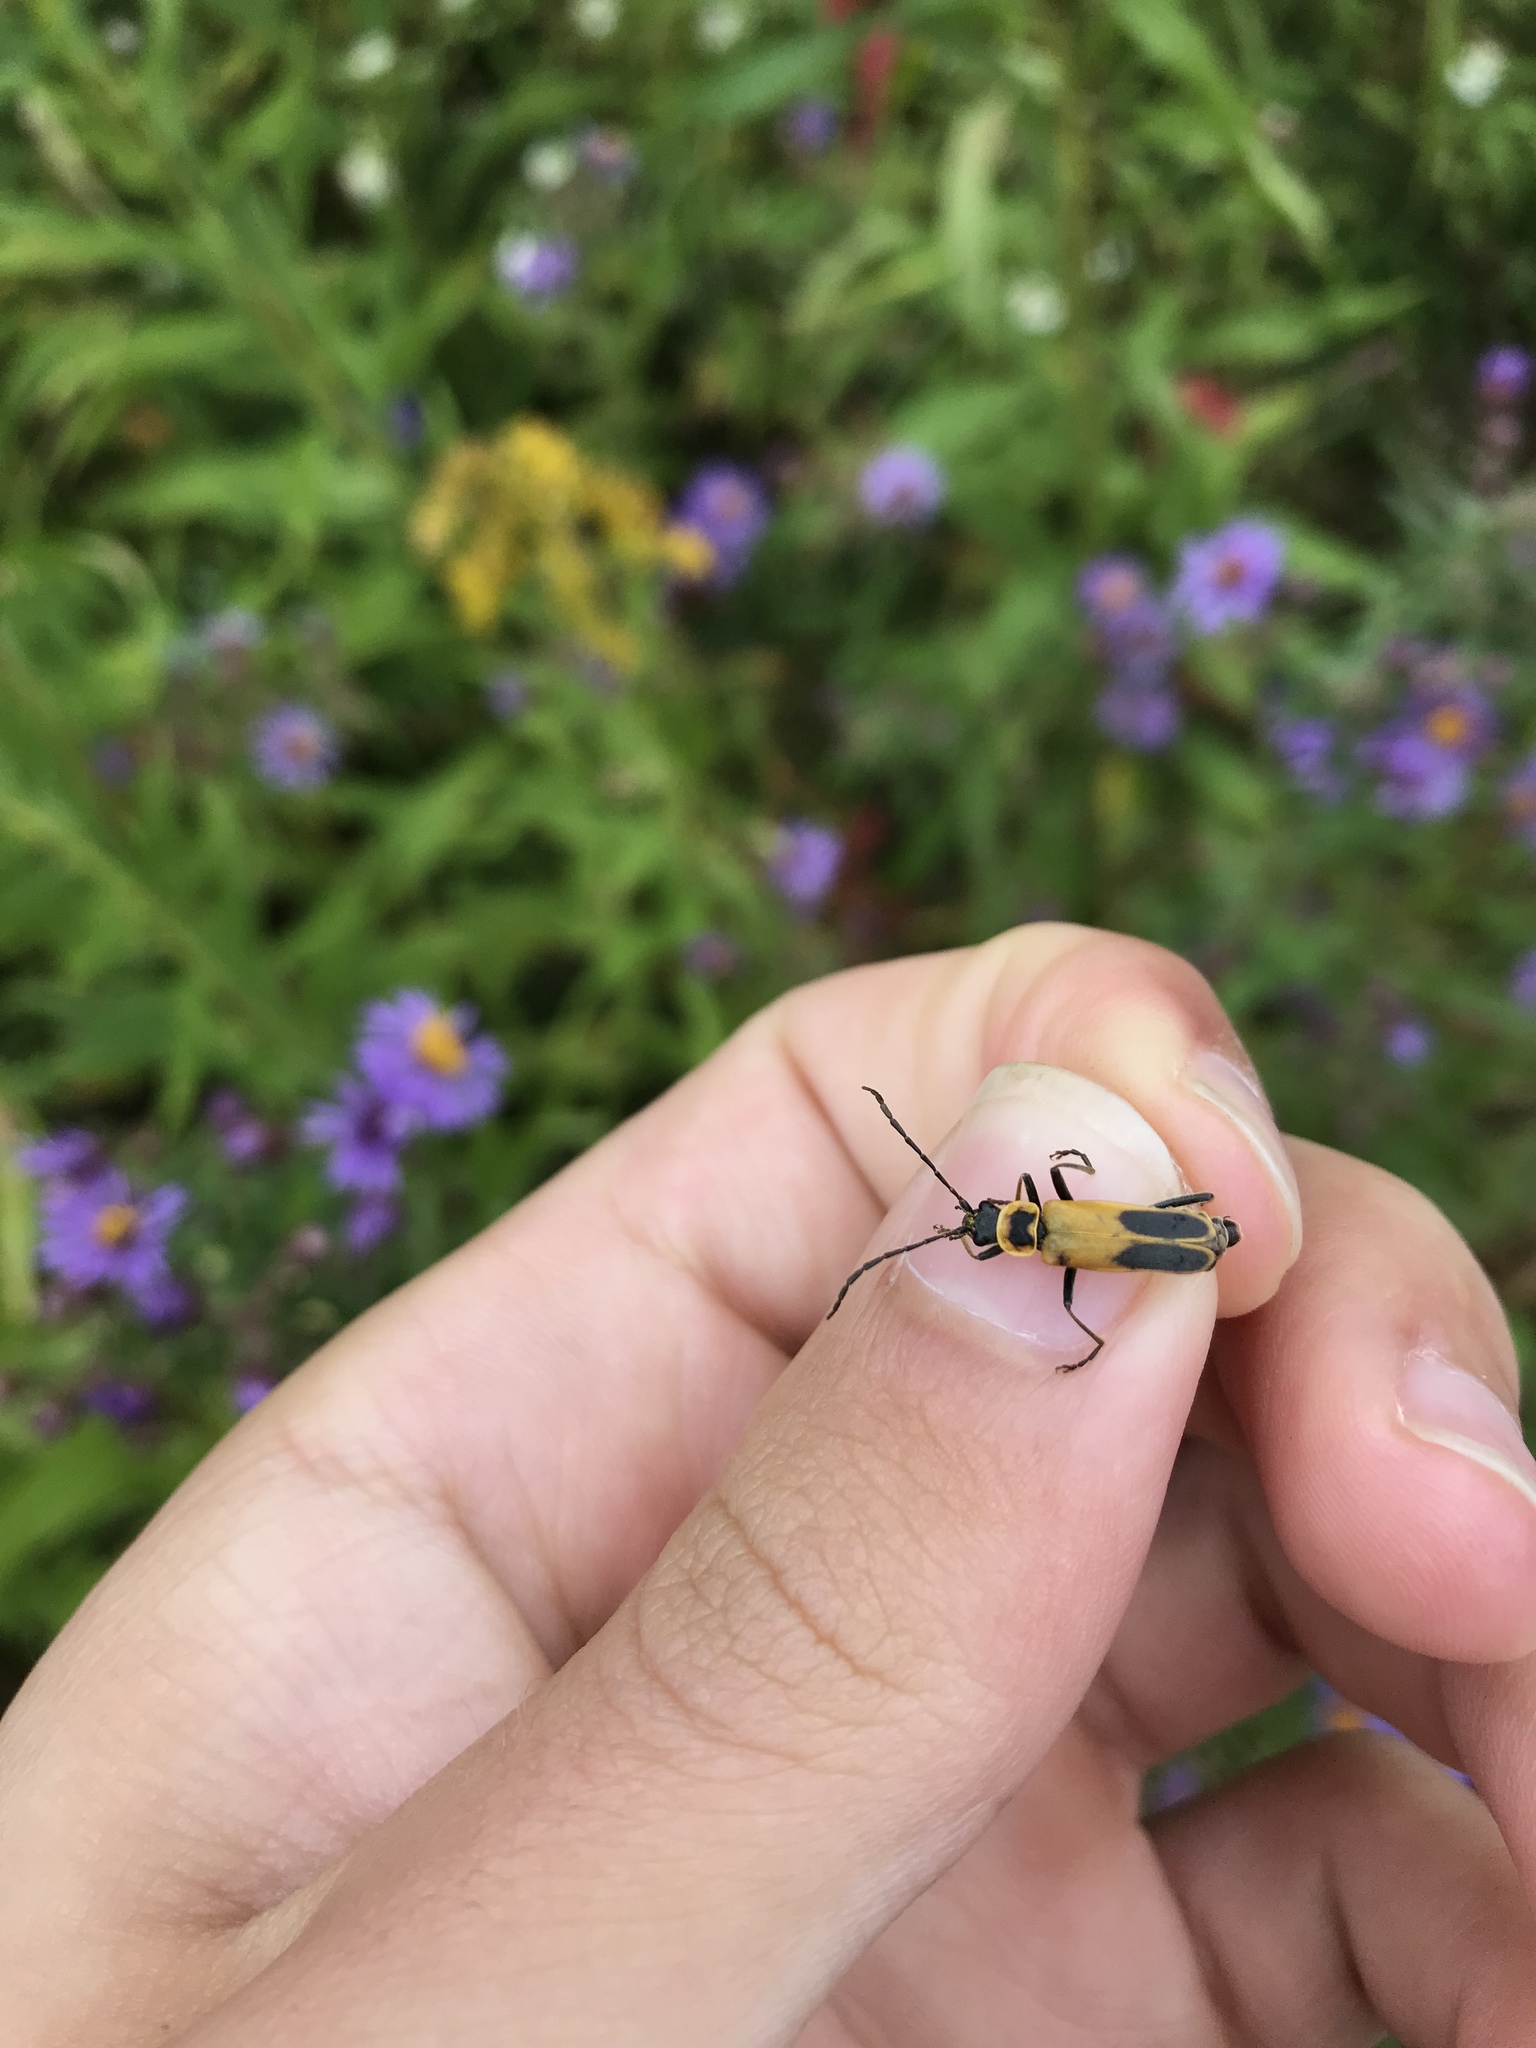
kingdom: Animalia
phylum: Arthropoda
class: Insecta
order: Coleoptera
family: Cantharidae
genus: Chauliognathus
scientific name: Chauliognathus pensylvanicus
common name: Goldenrod soldier beetle
